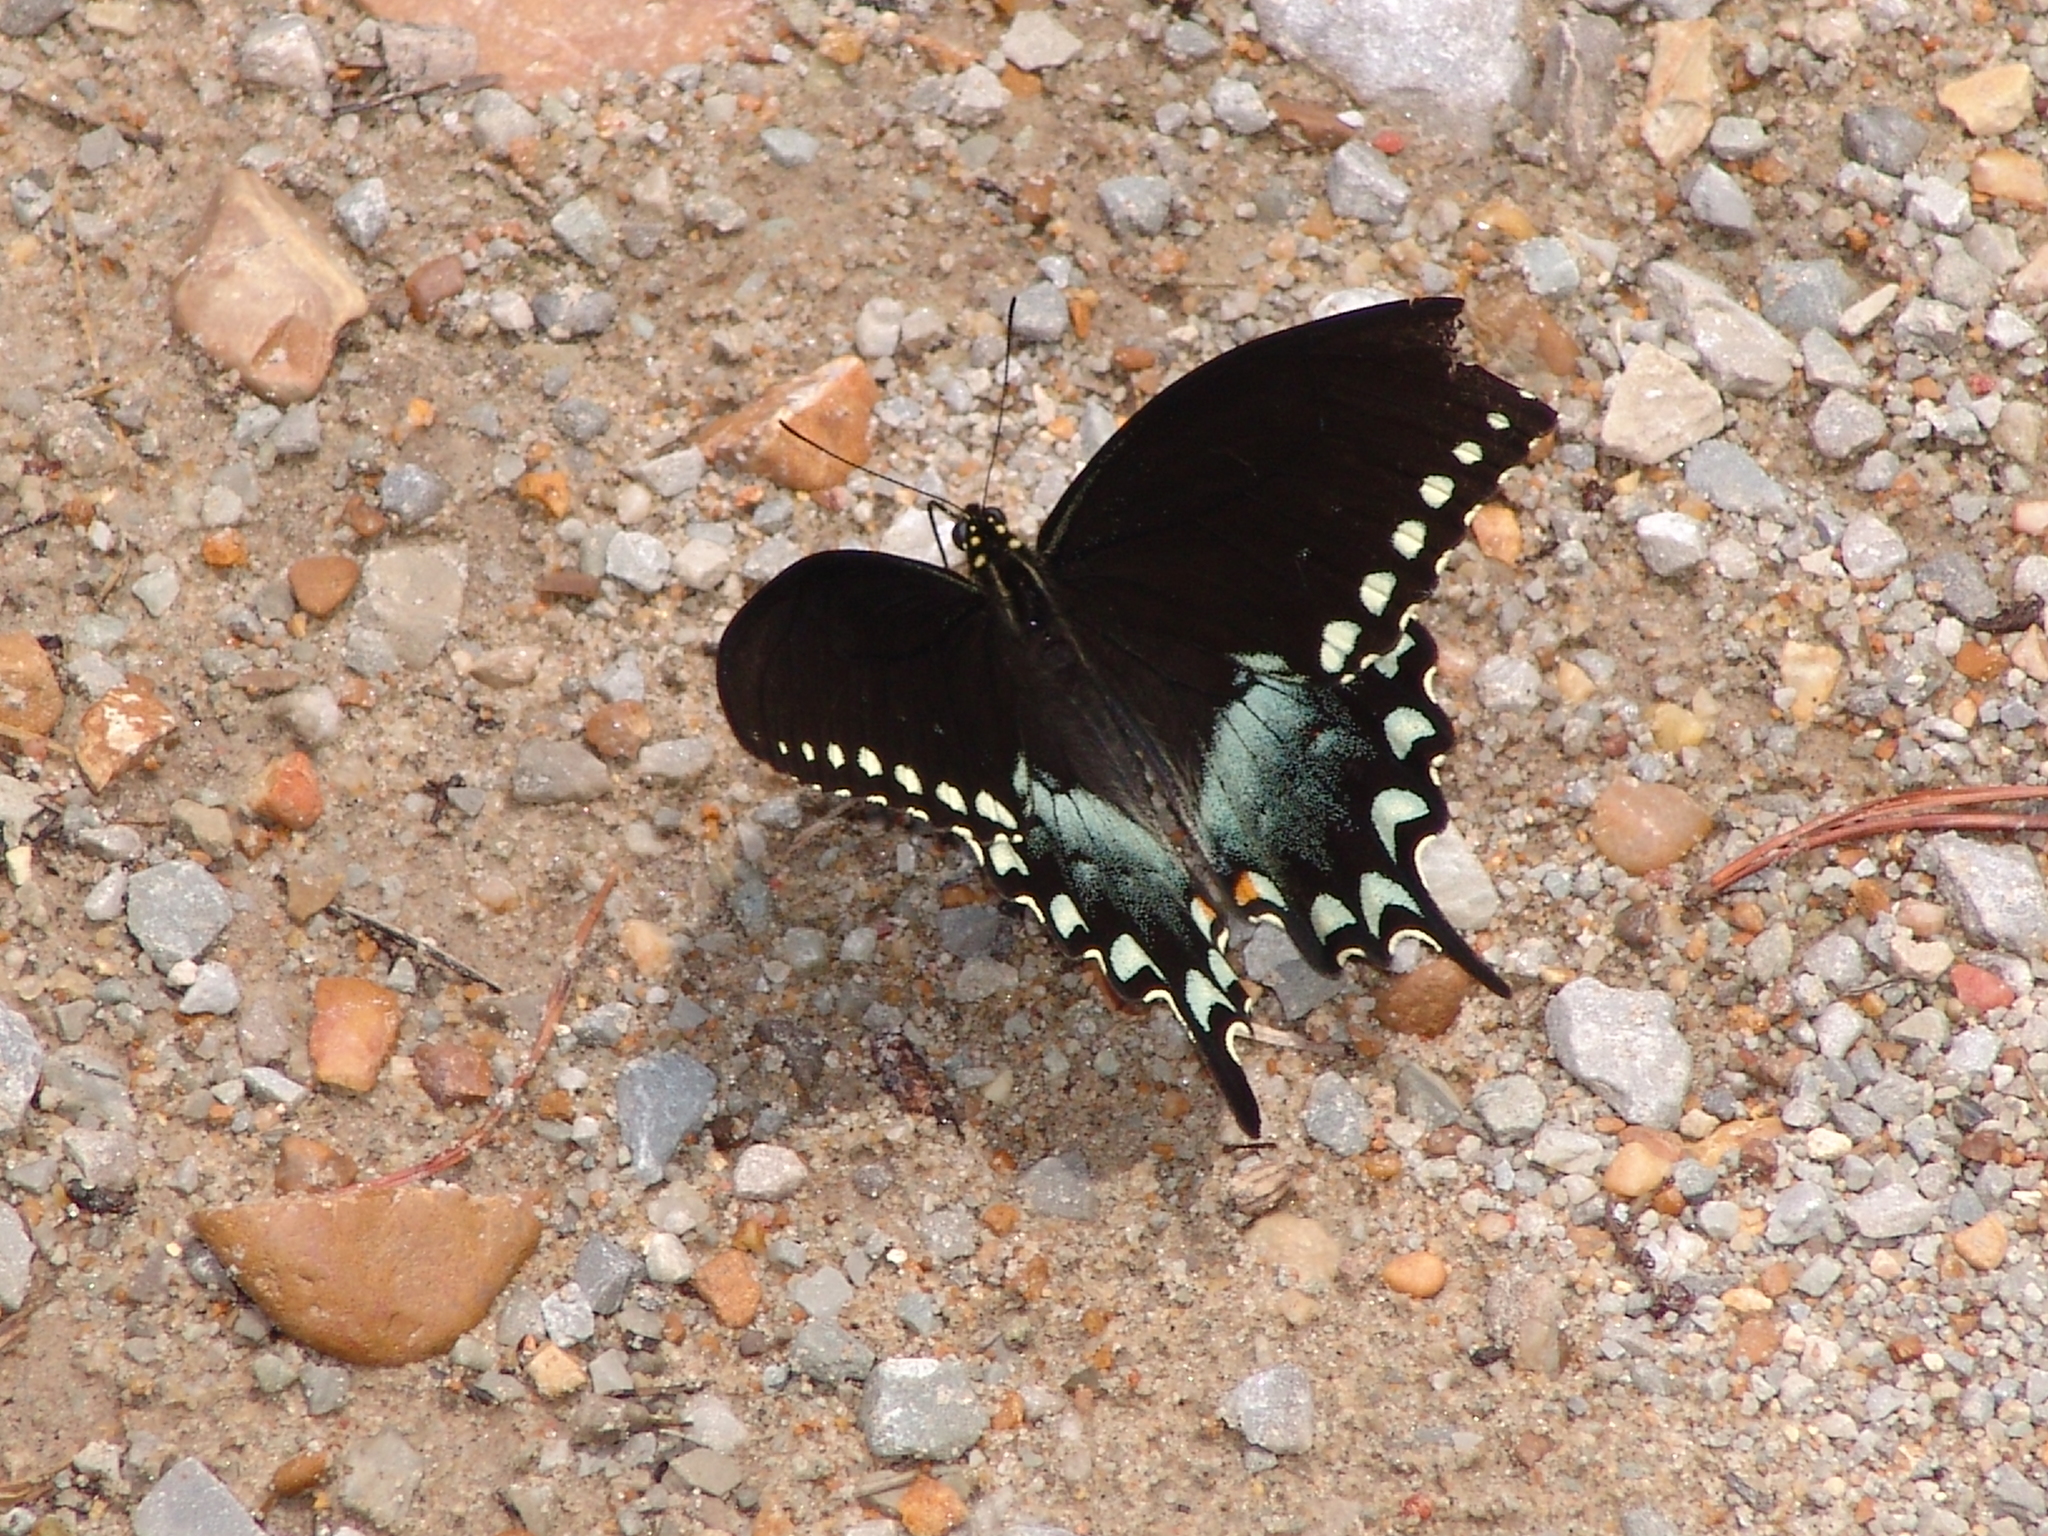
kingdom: Animalia
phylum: Arthropoda
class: Insecta
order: Lepidoptera
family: Papilionidae
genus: Papilio
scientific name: Papilio troilus
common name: Spicebush swallowtail
